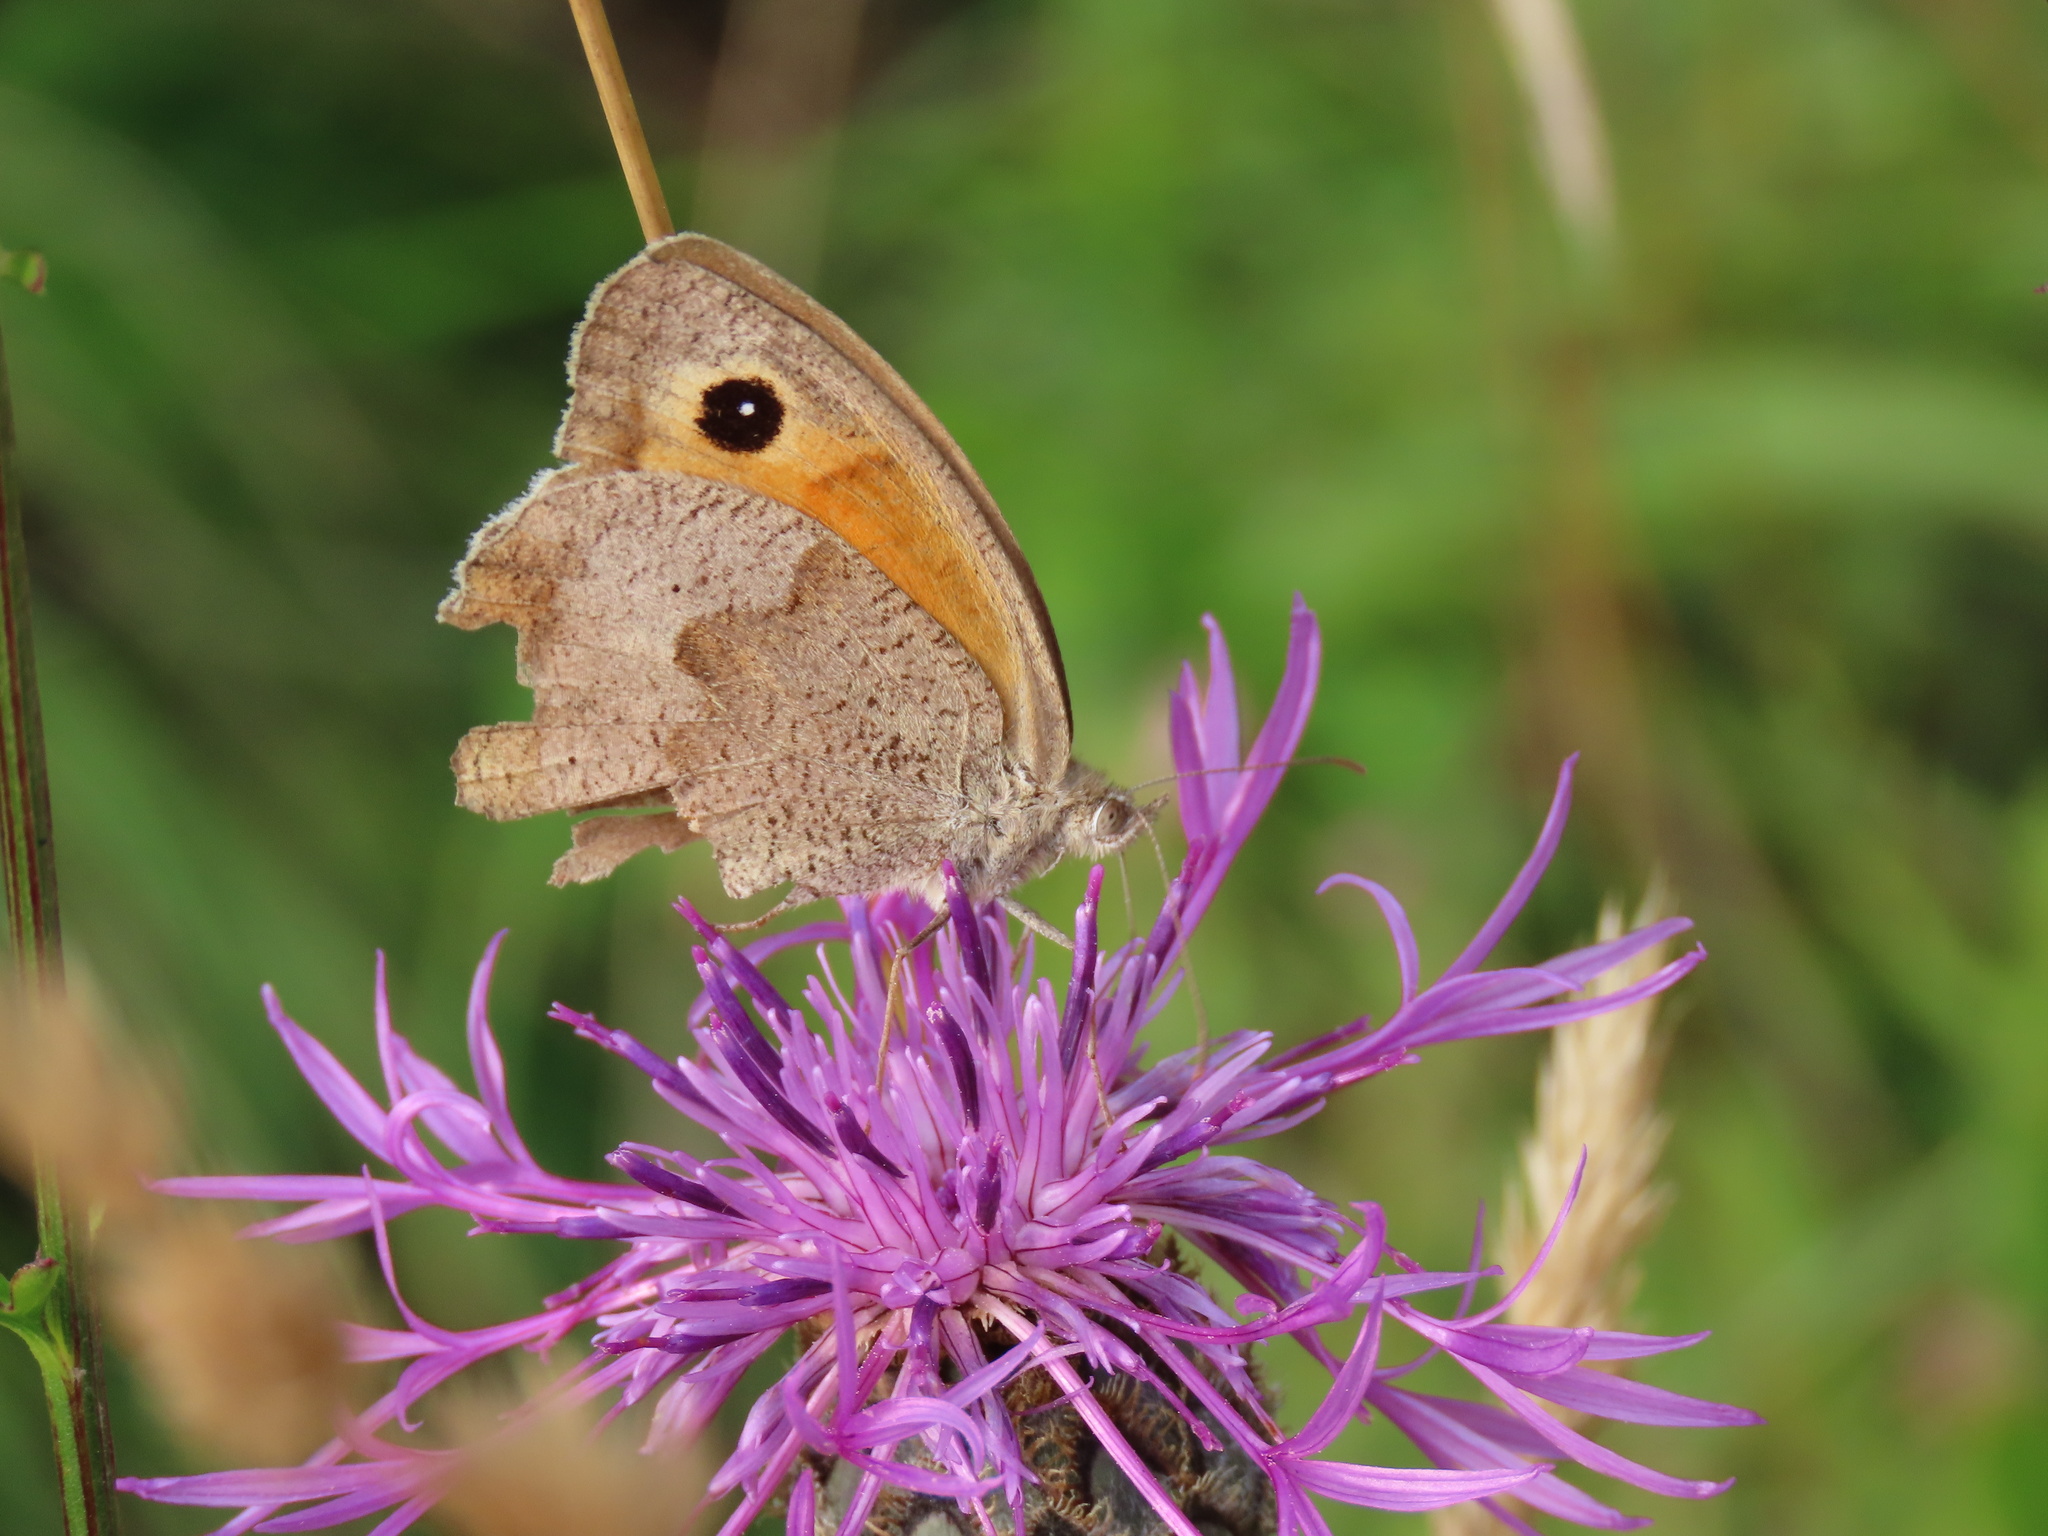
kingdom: Animalia
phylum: Arthropoda
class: Insecta
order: Lepidoptera
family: Nymphalidae
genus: Maniola
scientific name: Maniola jurtina
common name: Meadow brown
